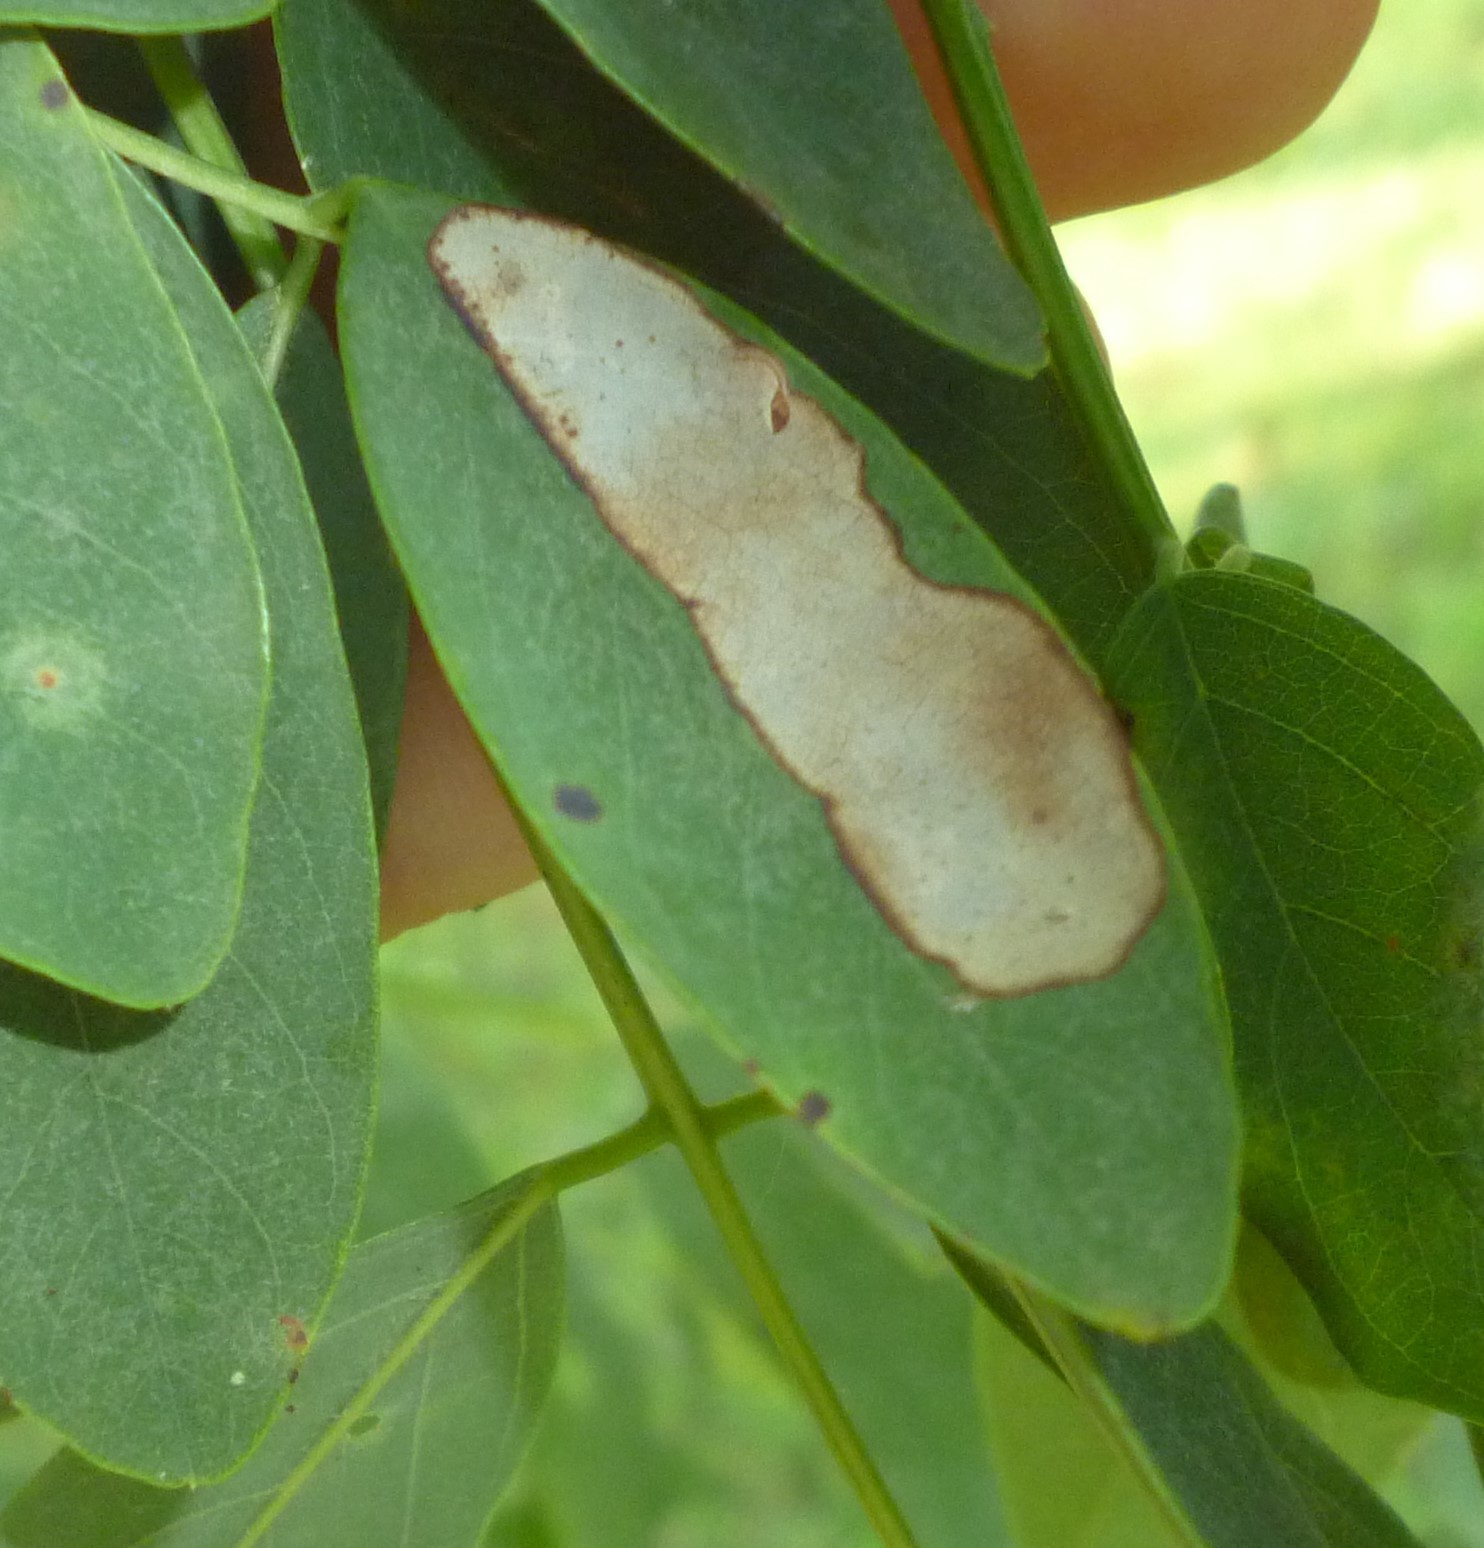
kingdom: Animalia
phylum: Arthropoda
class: Insecta
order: Lepidoptera
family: Gracillariidae
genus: Chrysaster
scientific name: Chrysaster ostensackenella
